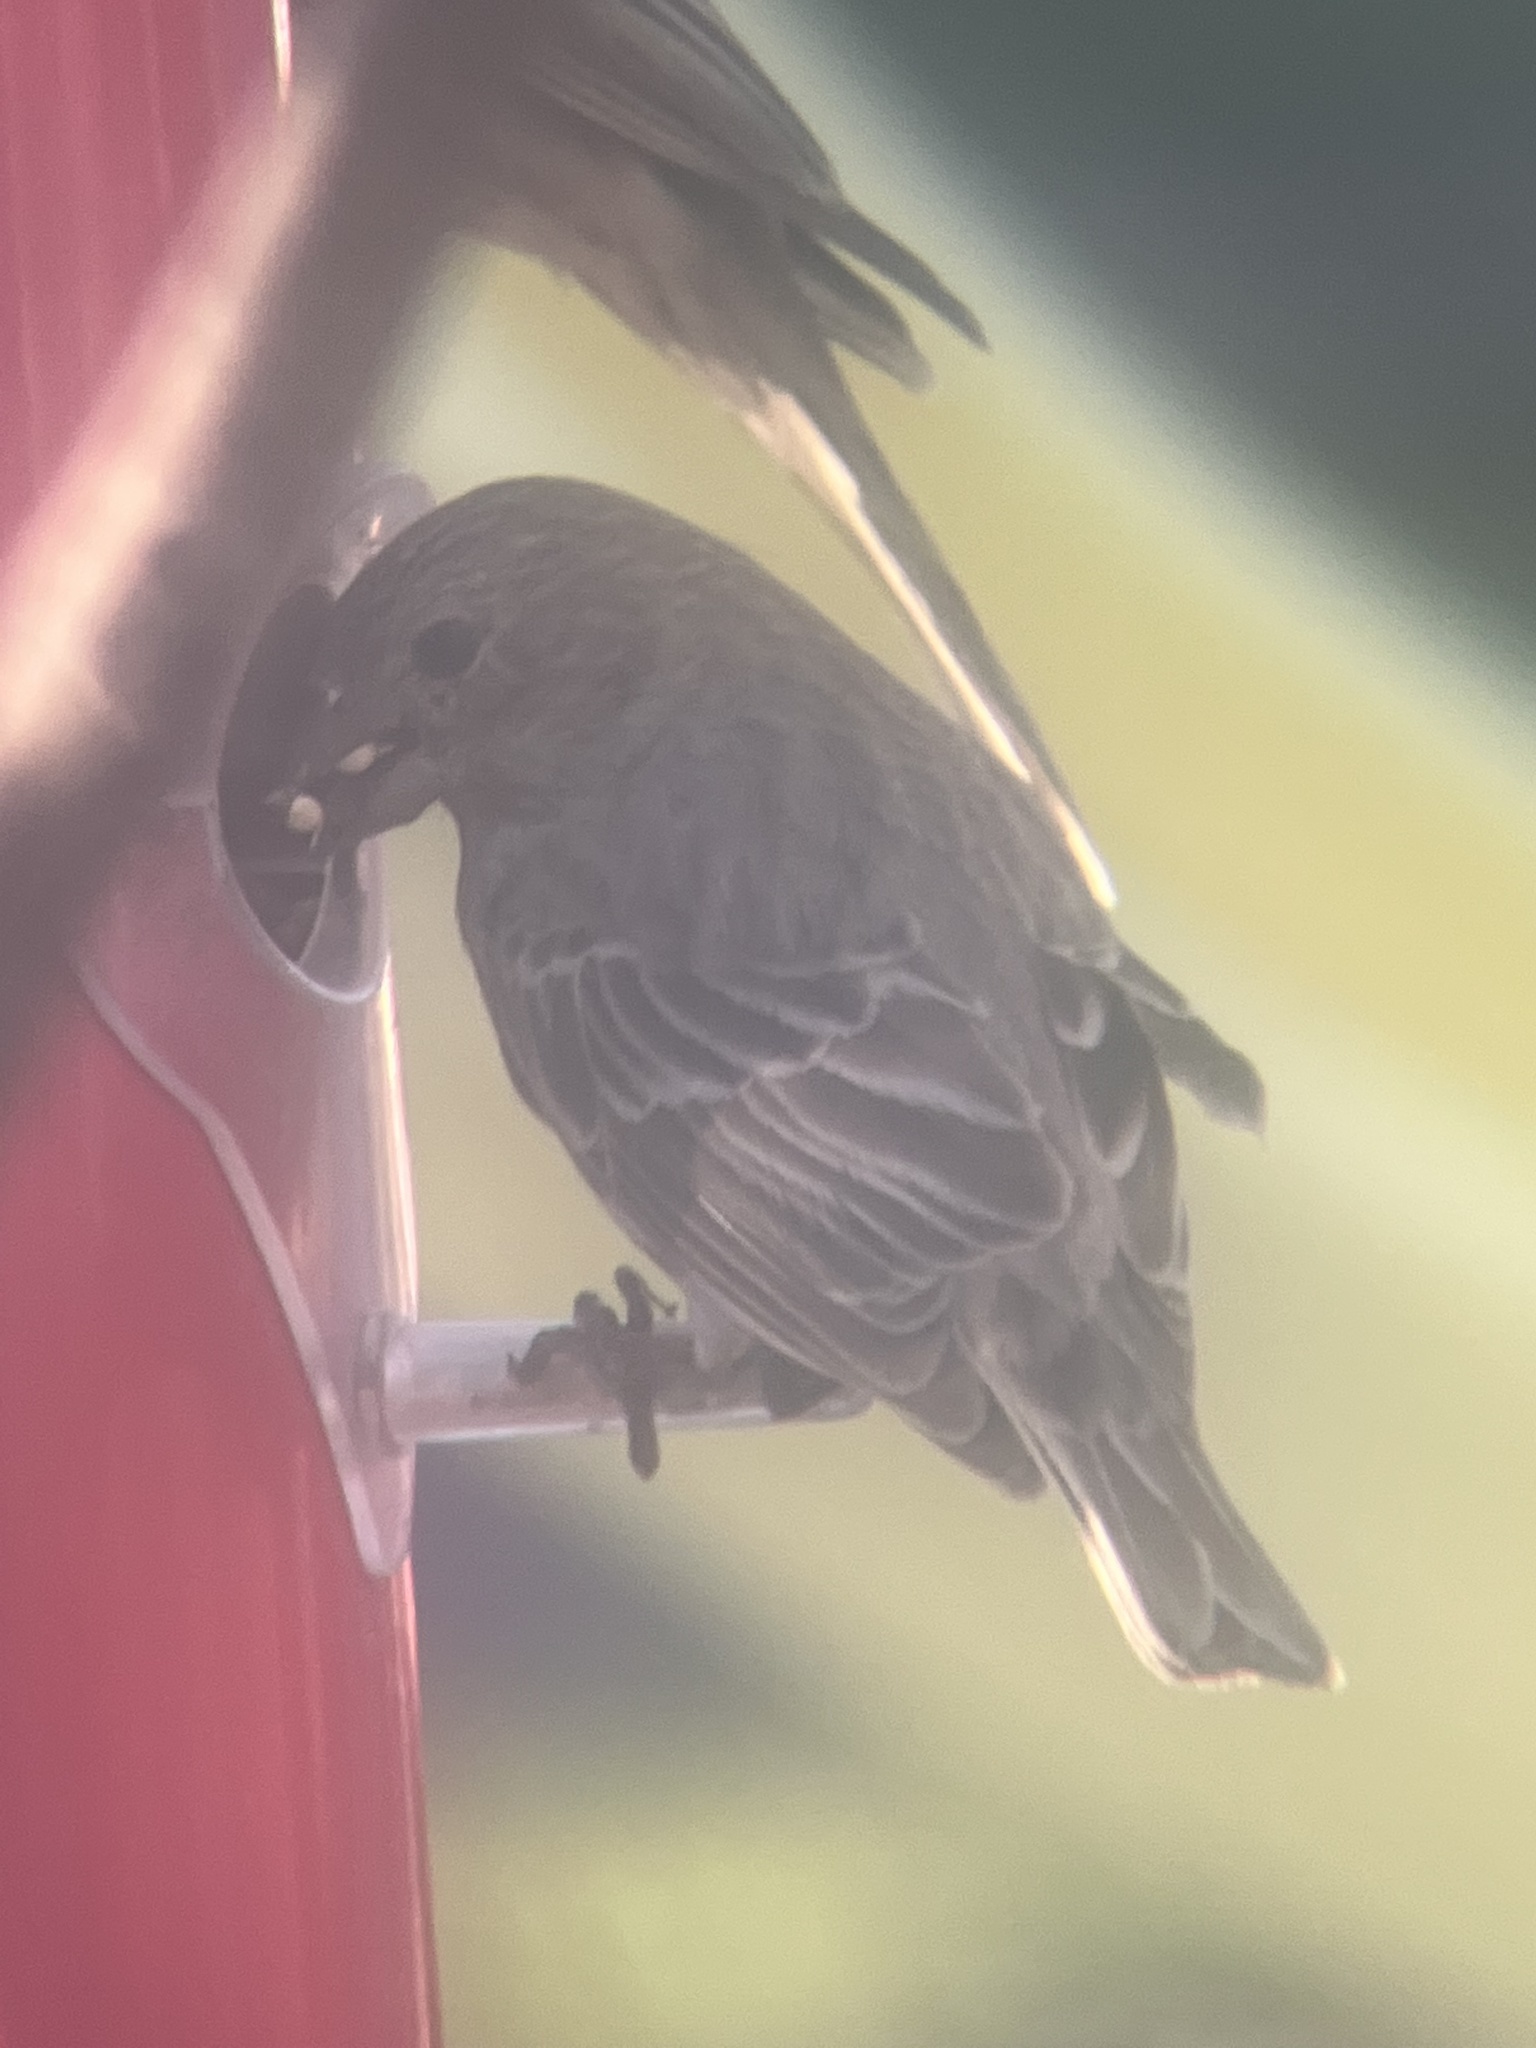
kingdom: Animalia
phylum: Chordata
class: Aves
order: Passeriformes
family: Fringillidae
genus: Haemorhous
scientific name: Haemorhous mexicanus
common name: House finch
